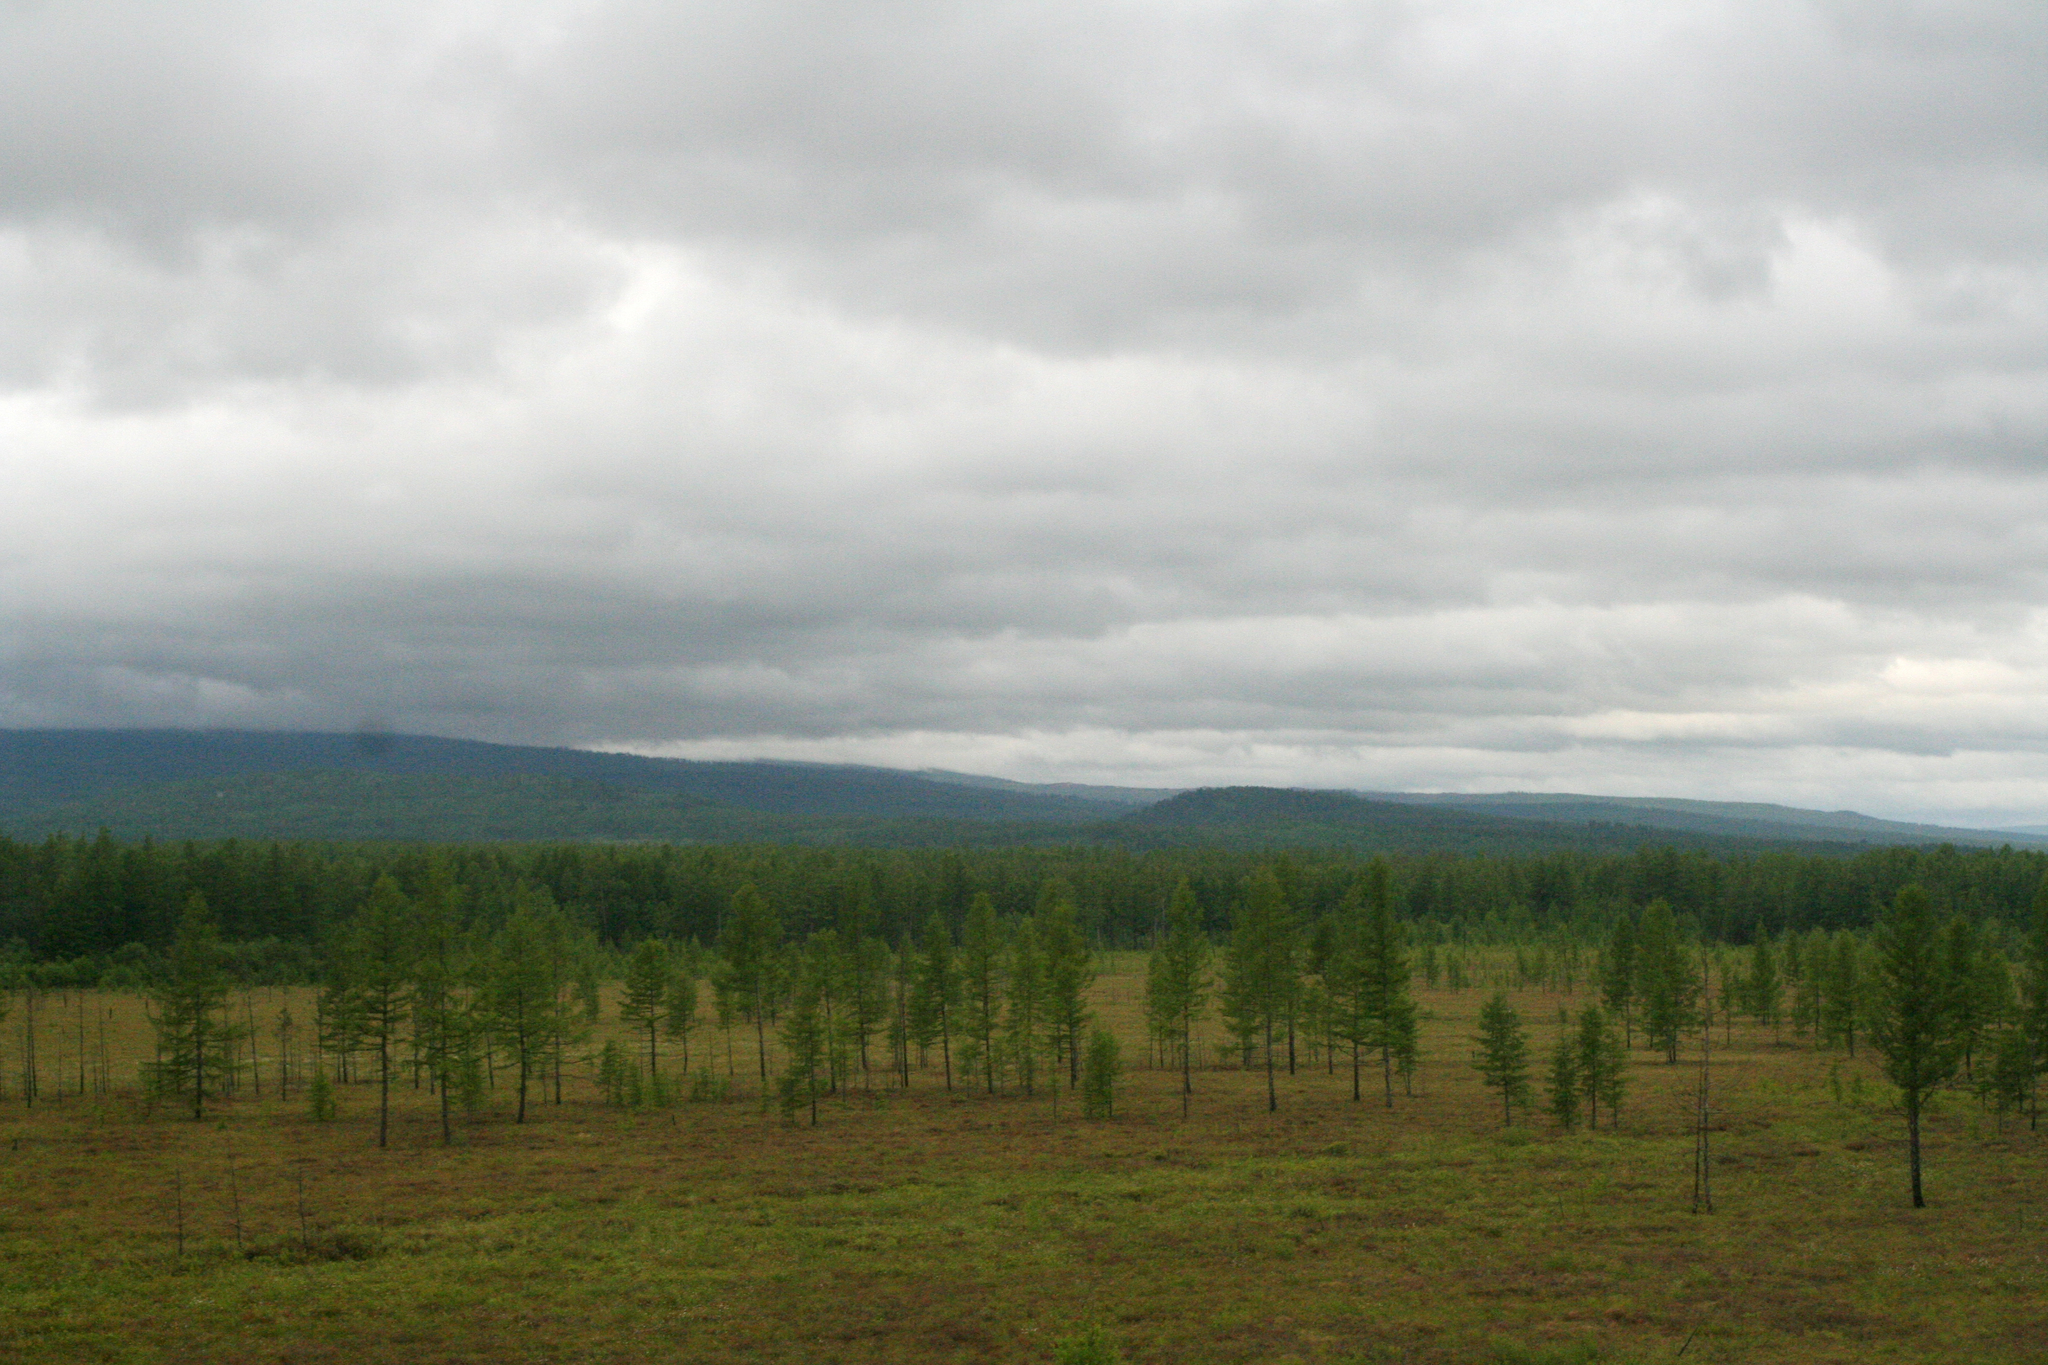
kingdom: Plantae
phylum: Tracheophyta
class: Pinopsida
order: Pinales
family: Pinaceae
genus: Larix
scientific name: Larix gmelinii
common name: Dahurian larch
